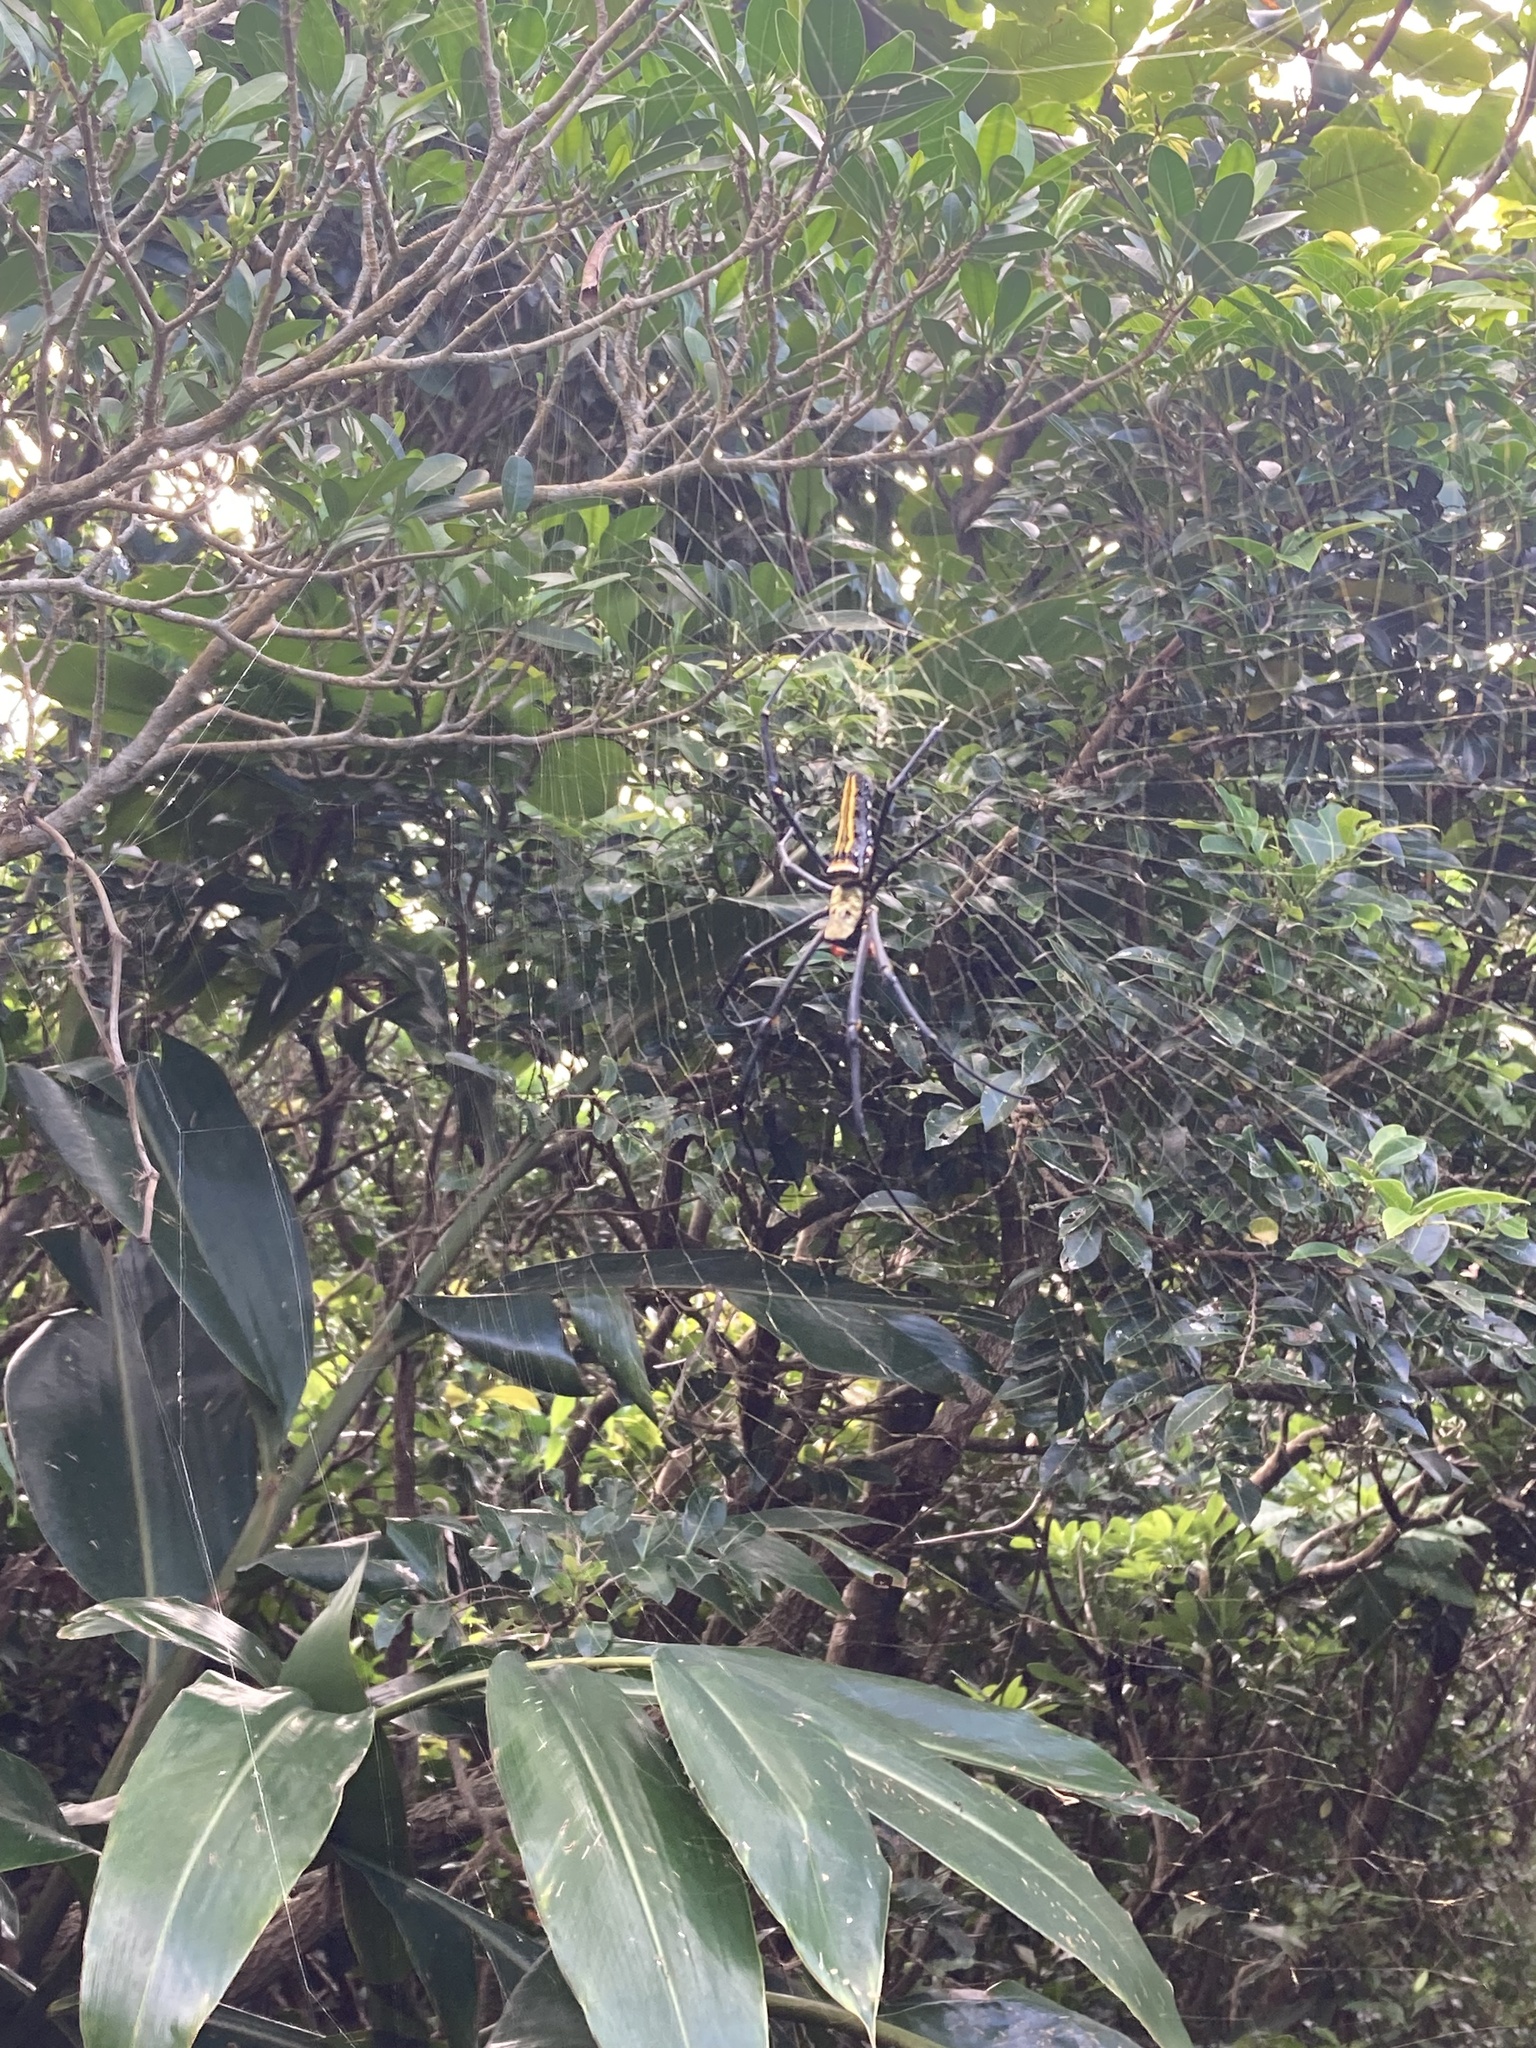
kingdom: Animalia
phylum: Arthropoda
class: Arachnida
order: Araneae
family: Araneidae
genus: Nephila
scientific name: Nephila pilipes
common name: Giant golden orb weaver
